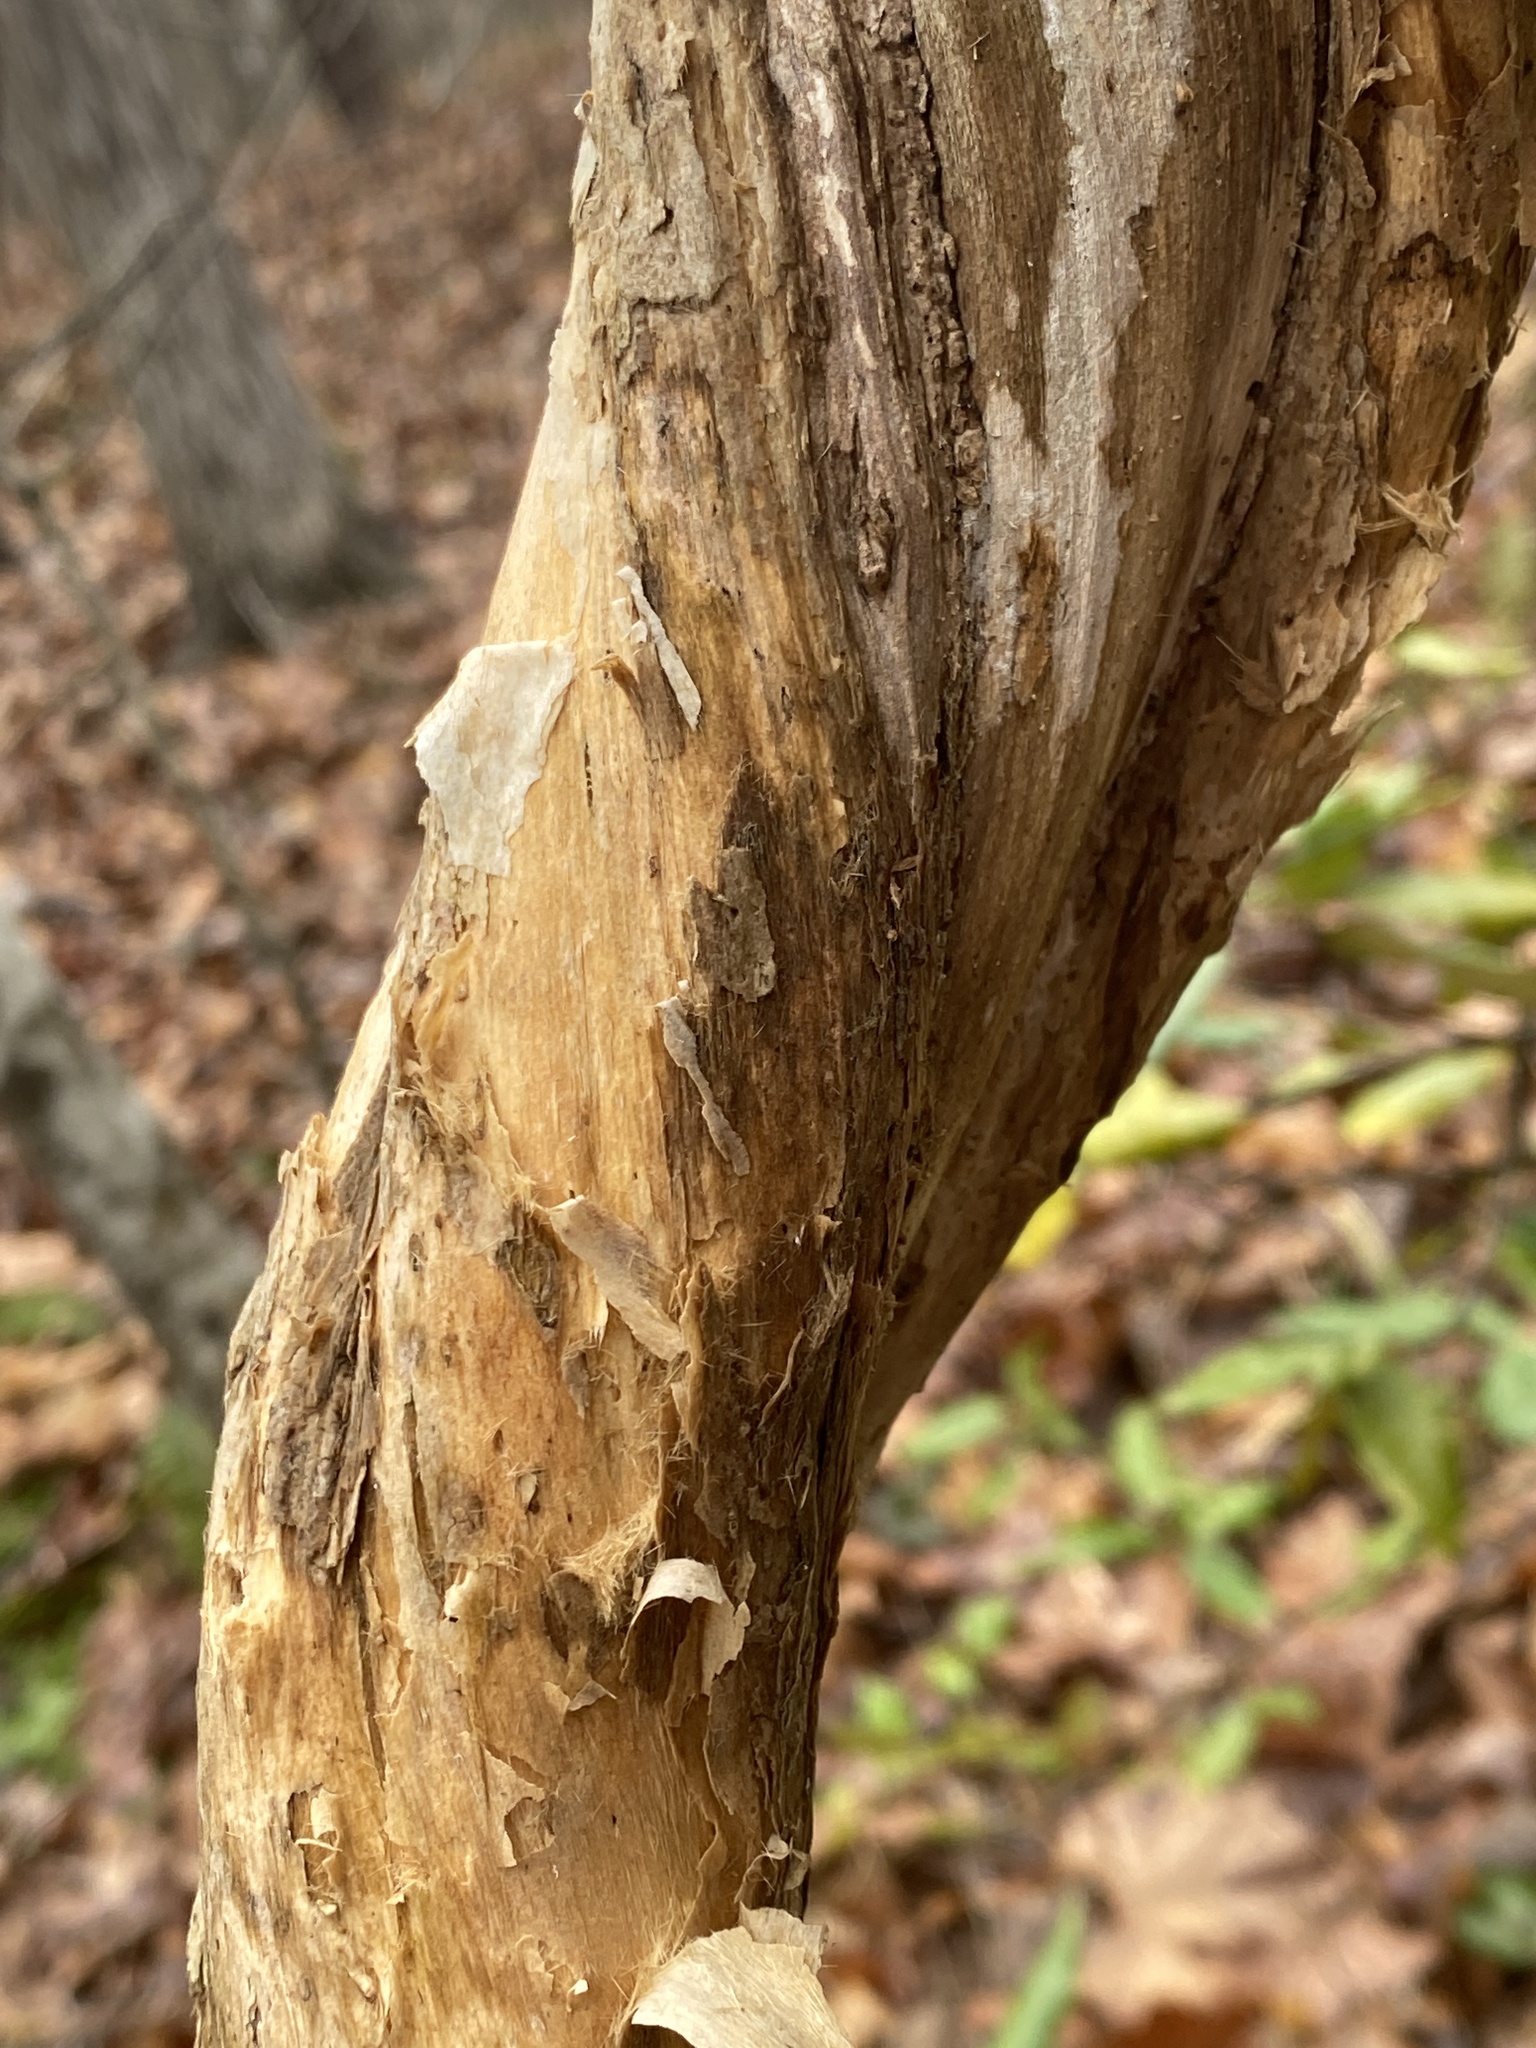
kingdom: Plantae
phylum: Tracheophyta
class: Magnoliopsida
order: Lamiales
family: Bignoniaceae
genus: Campsis
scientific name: Campsis radicans
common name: Trumpet-creeper
